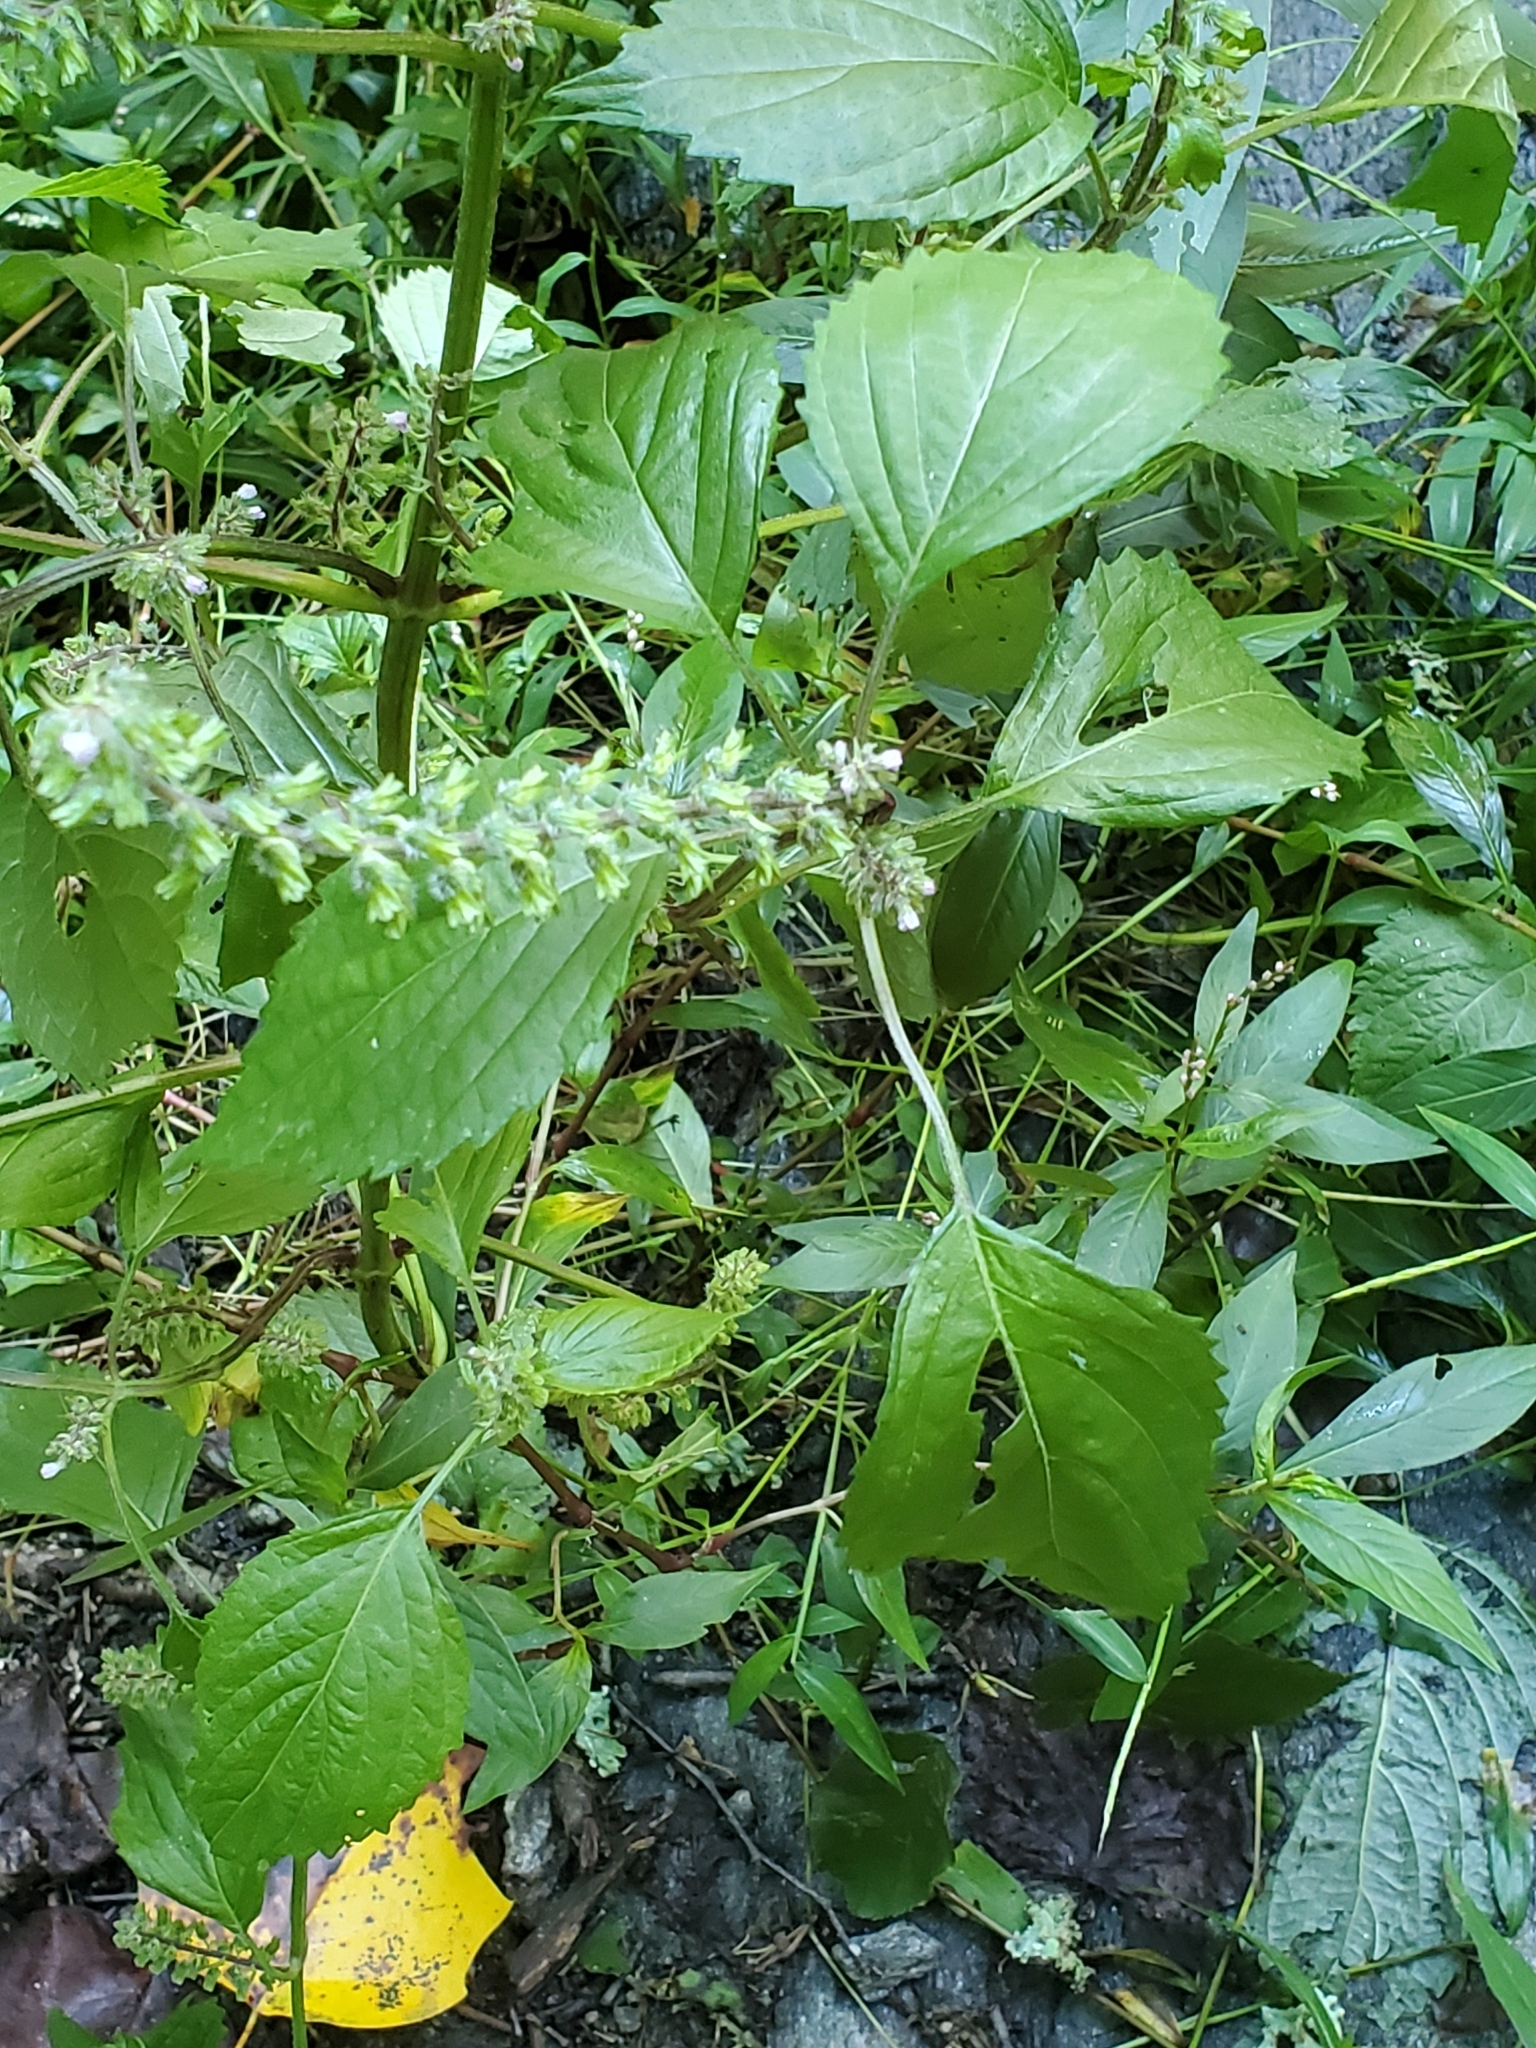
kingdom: Plantae
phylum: Tracheophyta
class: Magnoliopsida
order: Lamiales
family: Lamiaceae
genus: Perilla
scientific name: Perilla frutescens
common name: Perilla
